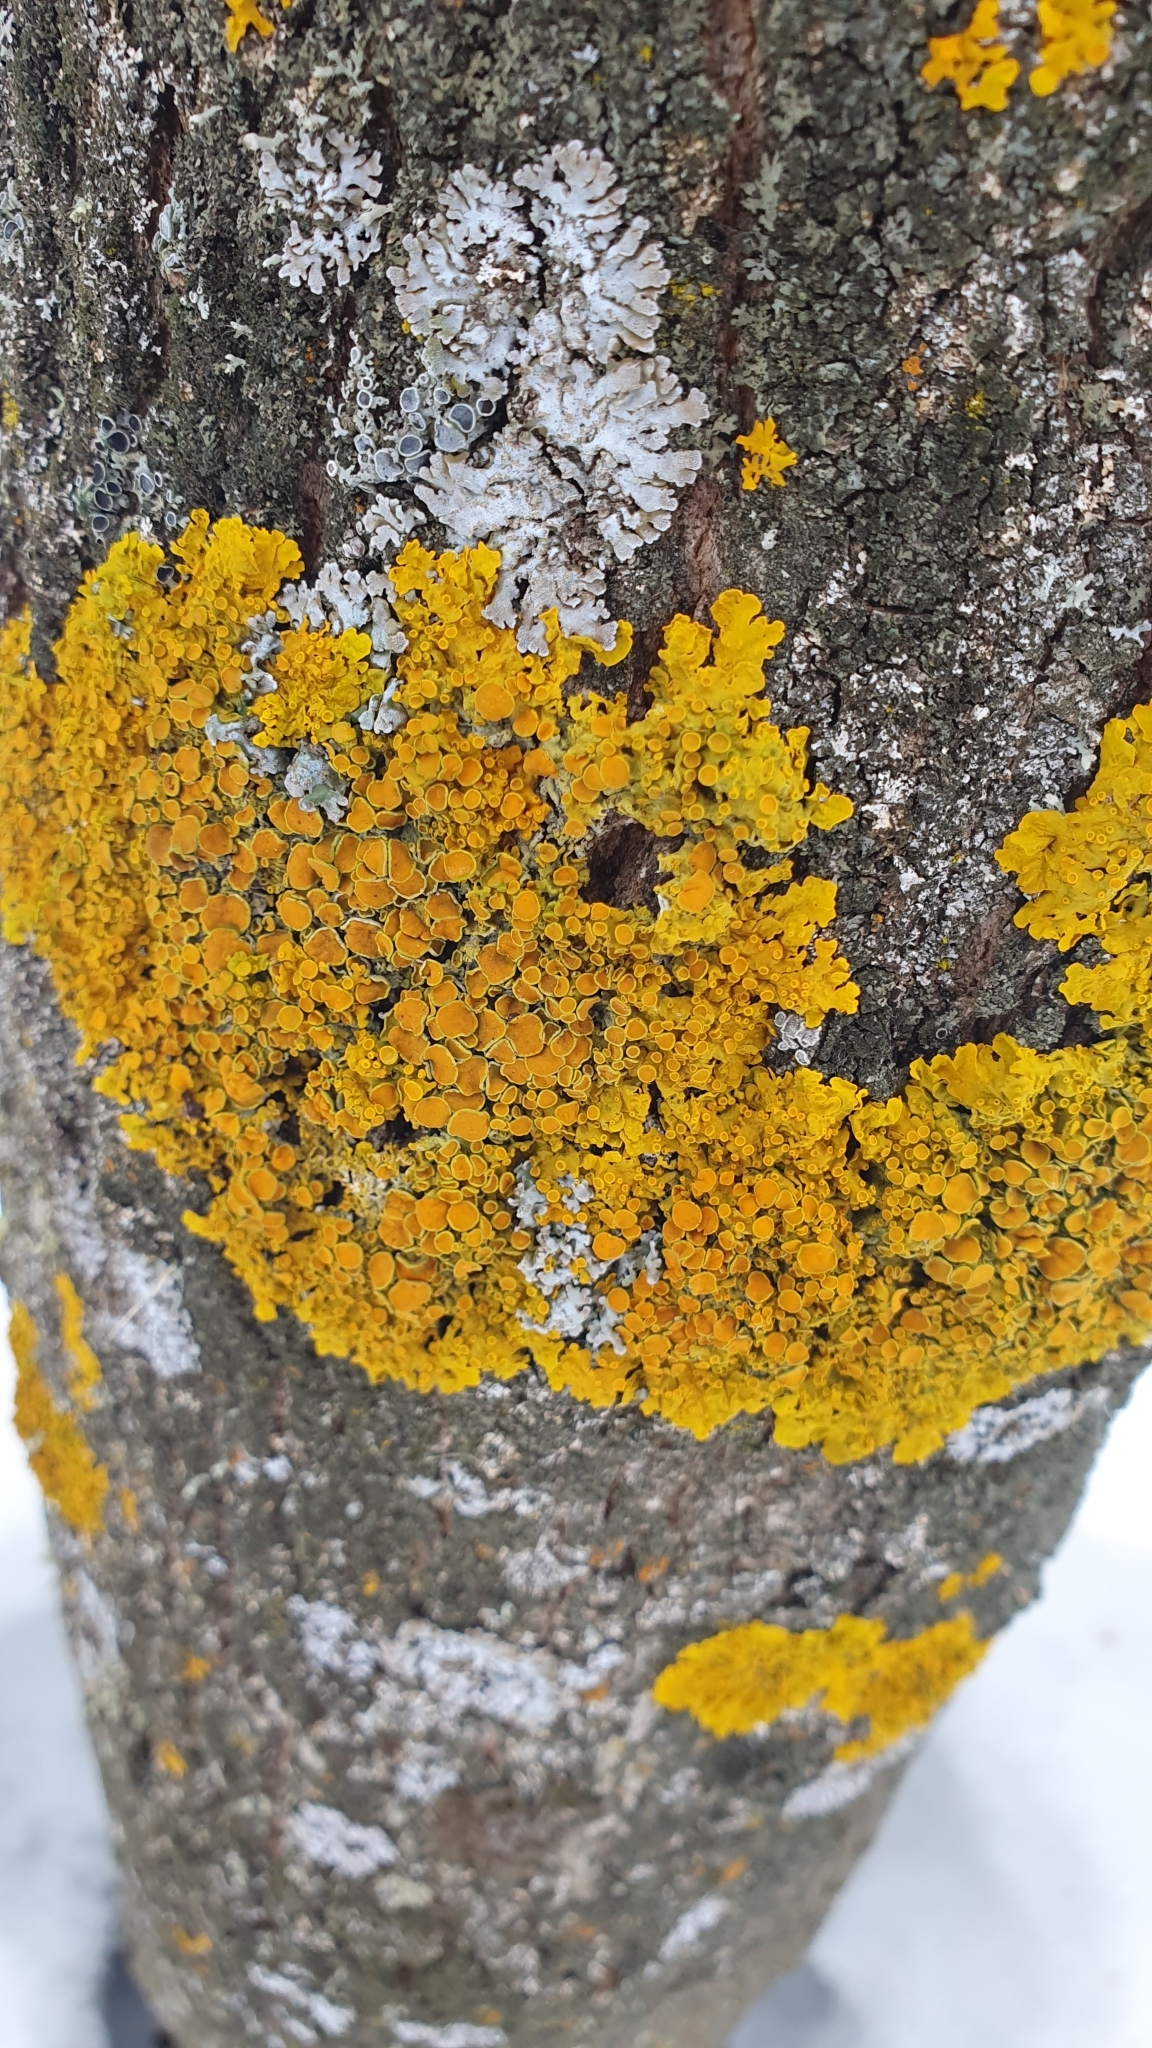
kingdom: Fungi
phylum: Ascomycota
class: Lecanoromycetes
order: Teloschistales
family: Teloschistaceae
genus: Xanthoria
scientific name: Xanthoria parietina
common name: Common orange lichen
